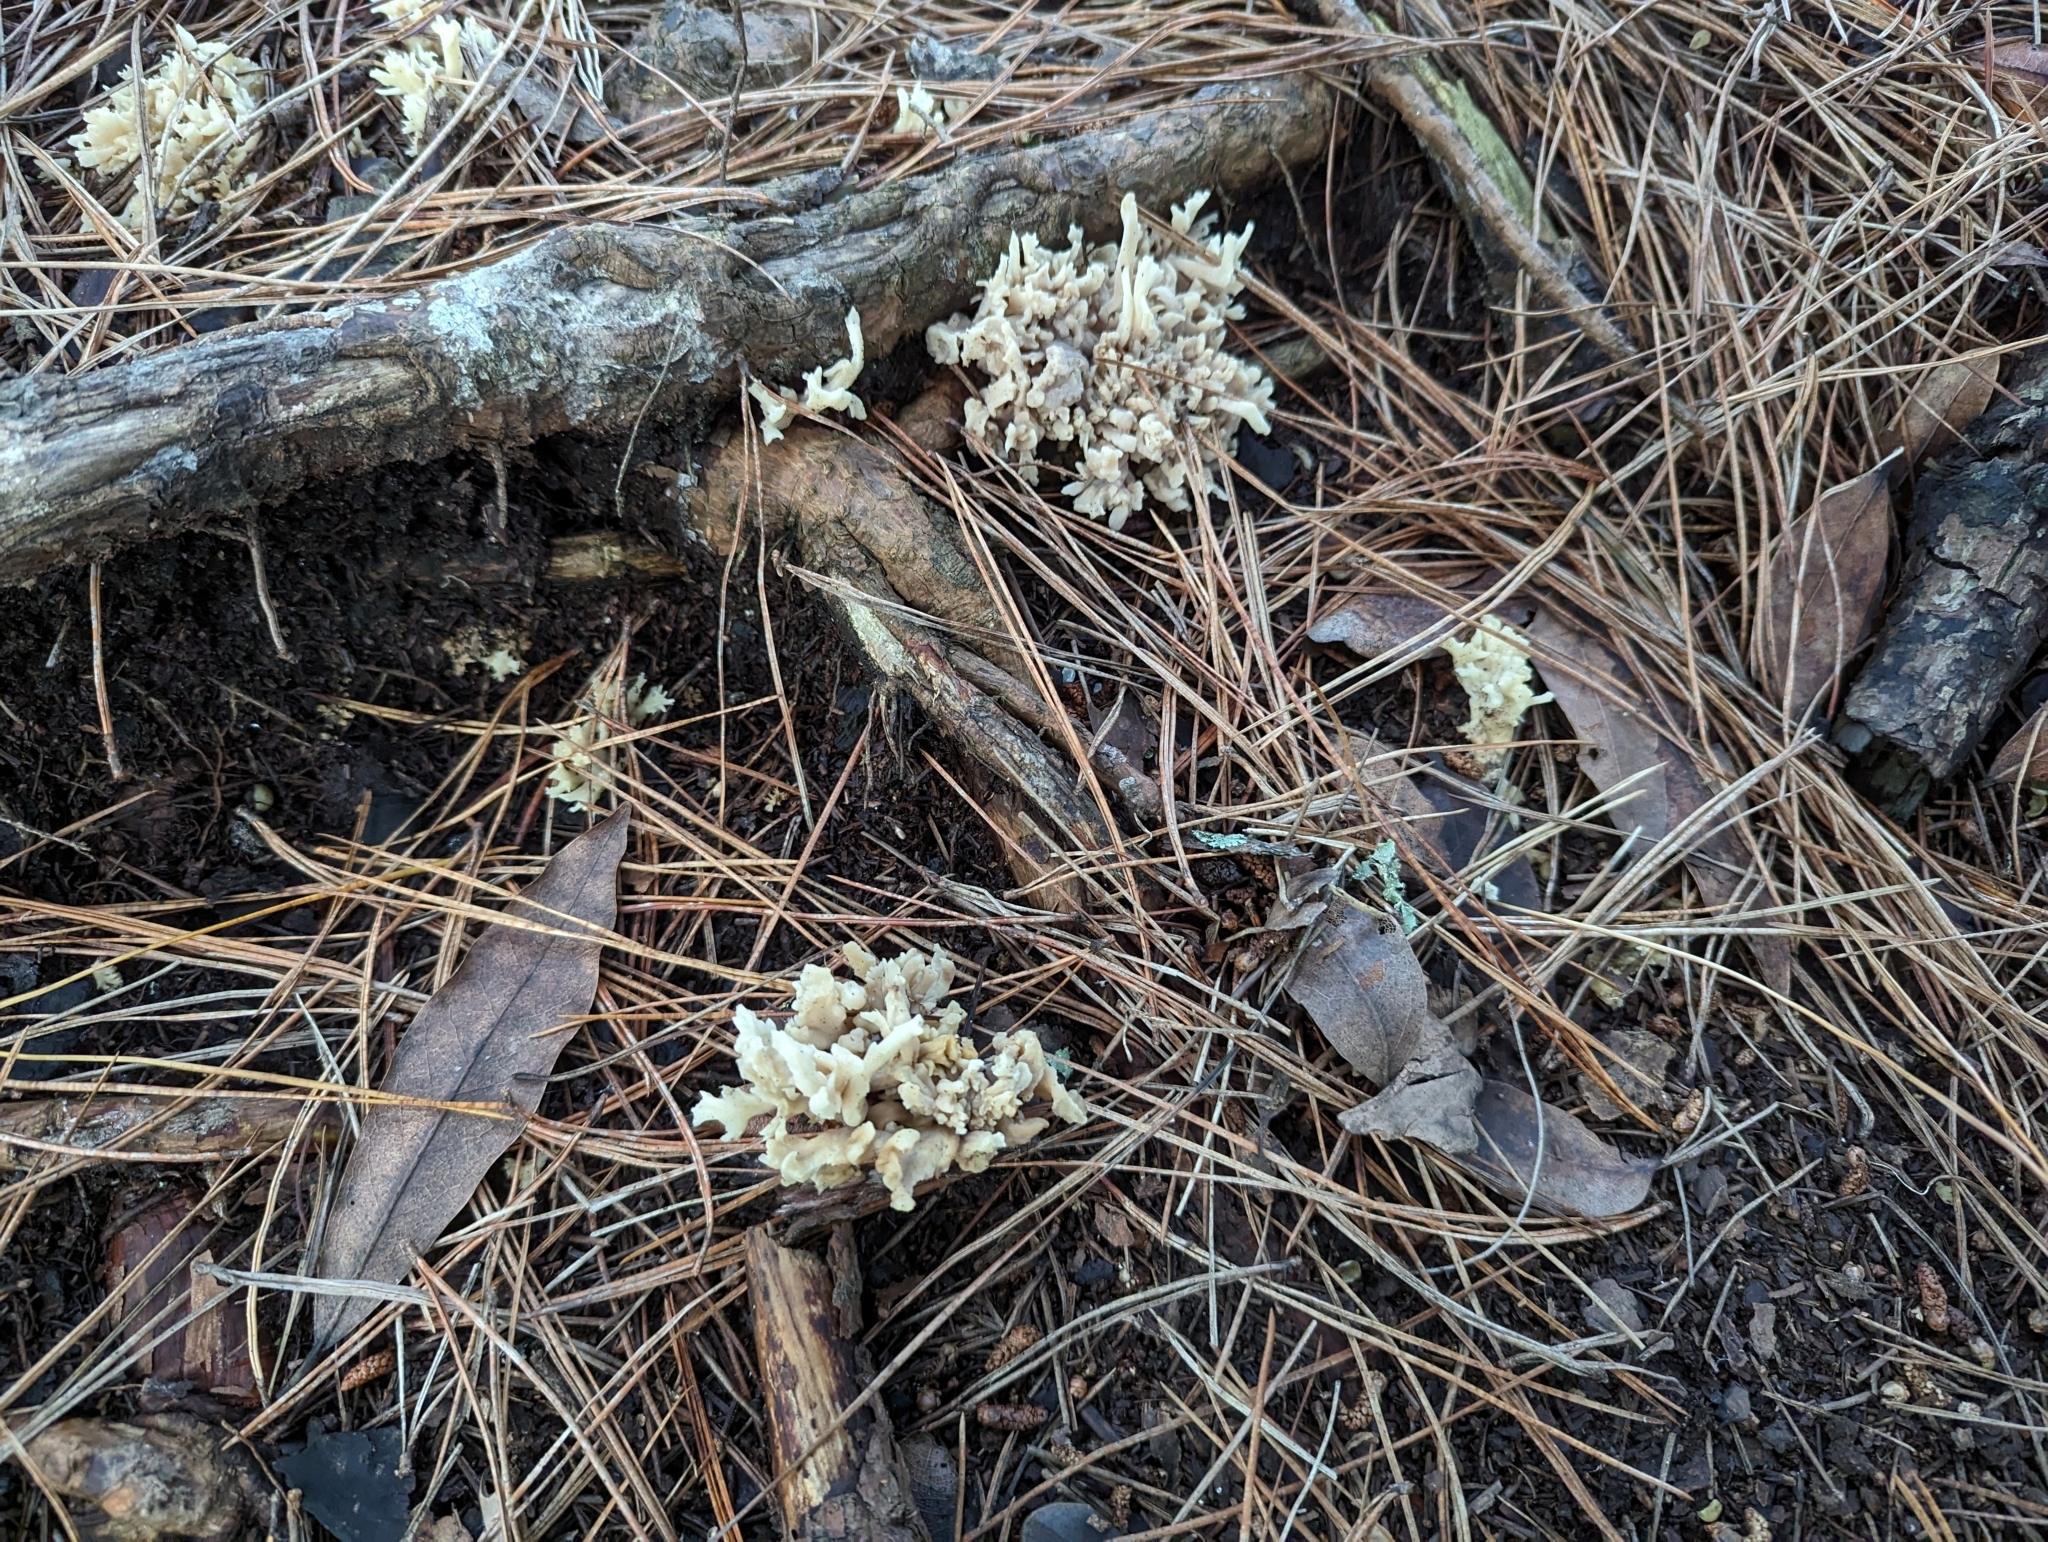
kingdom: Fungi
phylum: Basidiomycota
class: Agaricomycetes
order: Cantharellales
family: Hydnaceae
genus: Clavulina
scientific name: Clavulina rugosa
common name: Wrinkled club
